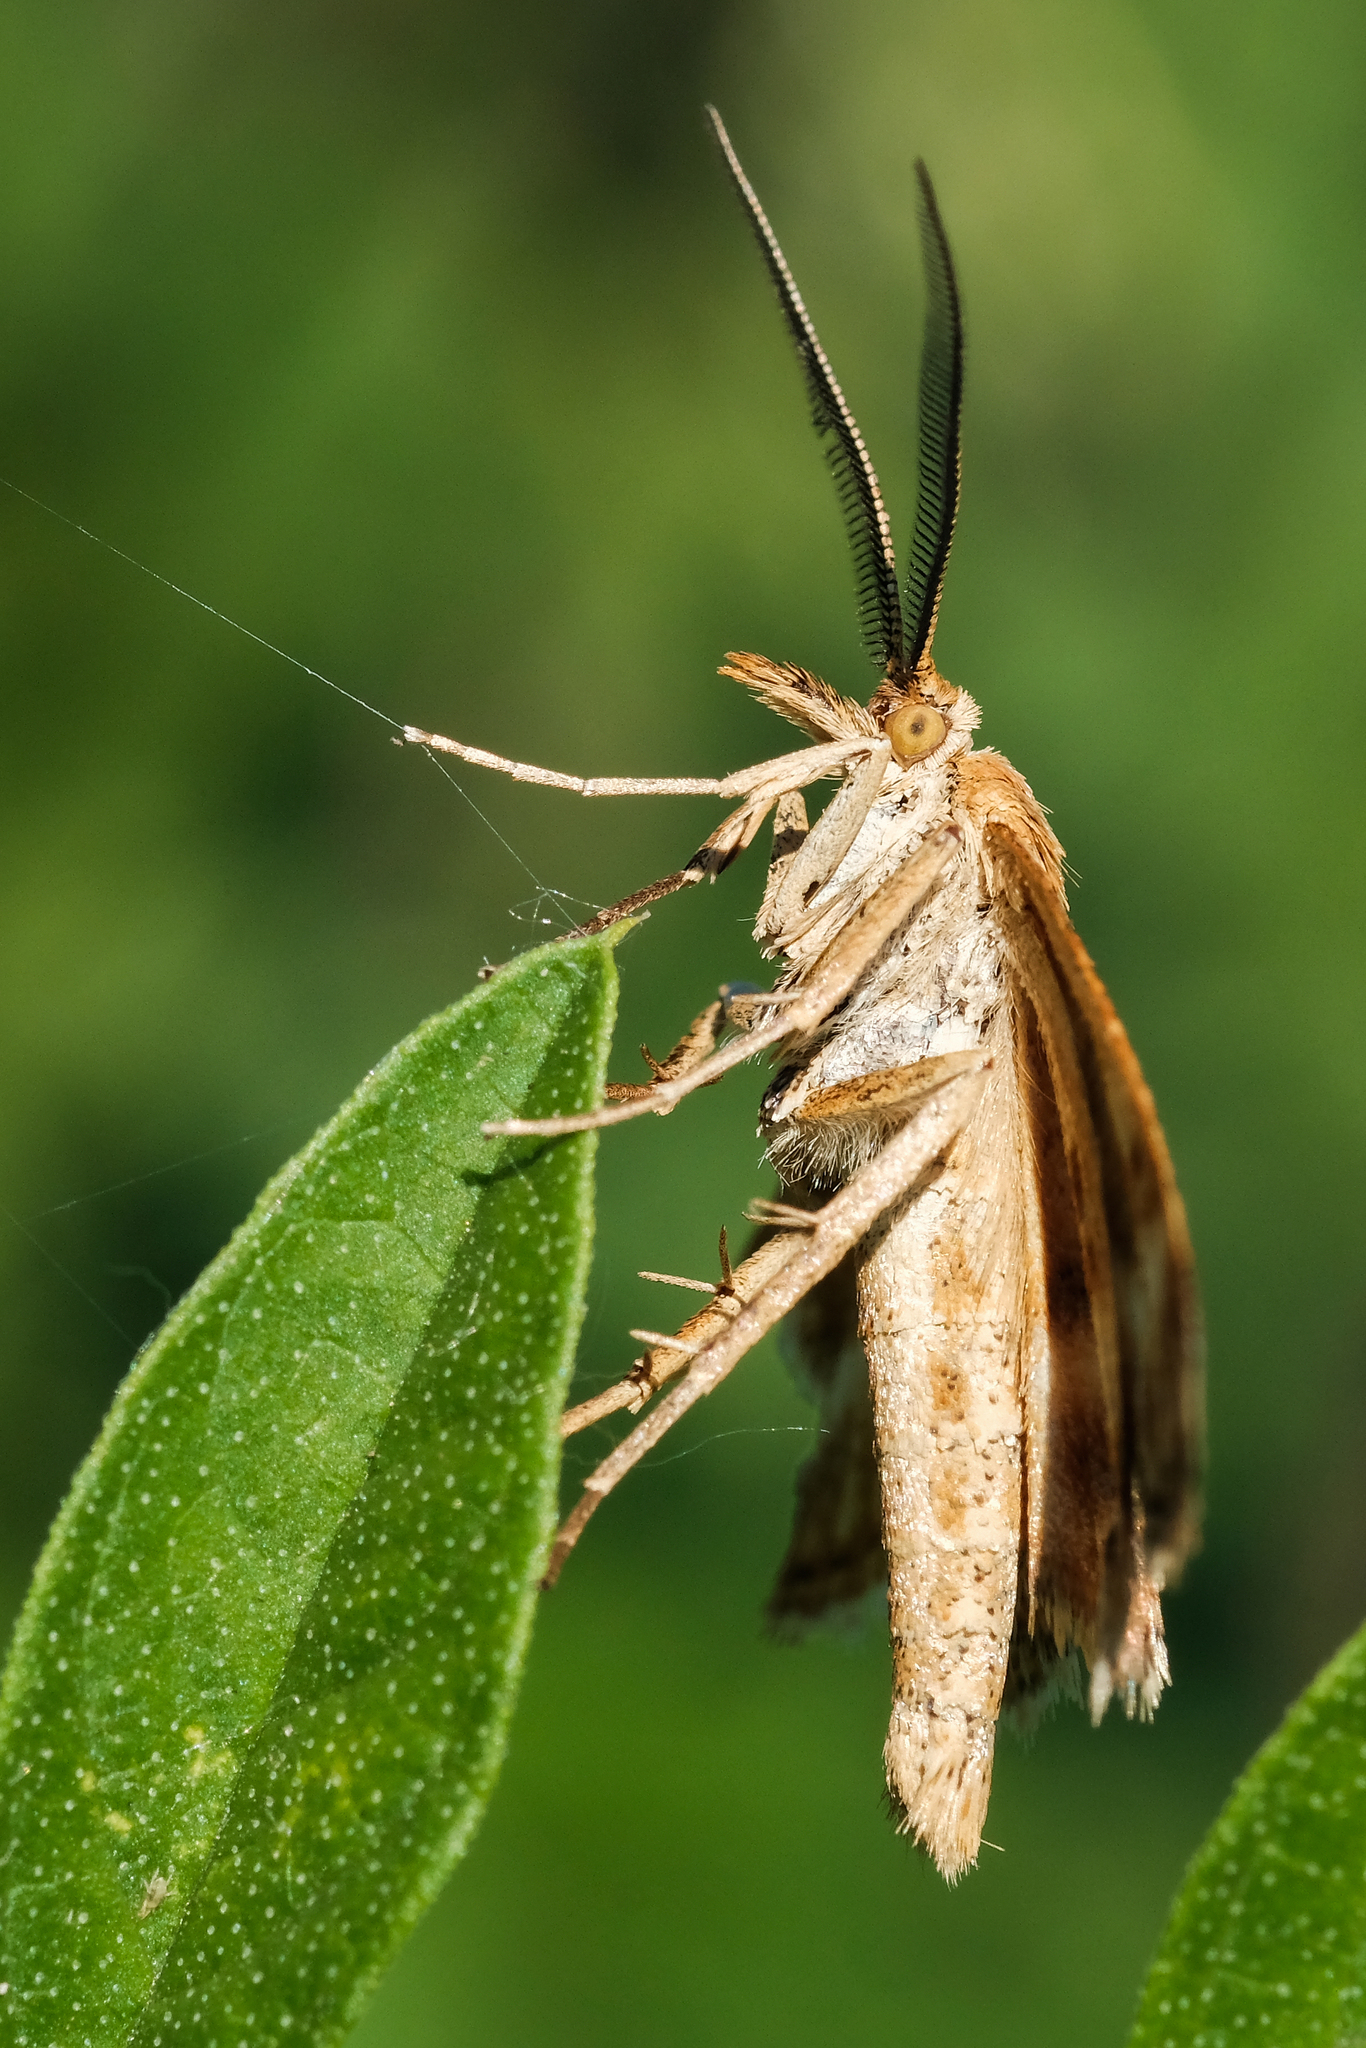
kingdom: Animalia
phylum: Arthropoda
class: Insecta
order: Lepidoptera
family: Pyralidae
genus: Synaphe
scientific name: Synaphe moldavica
